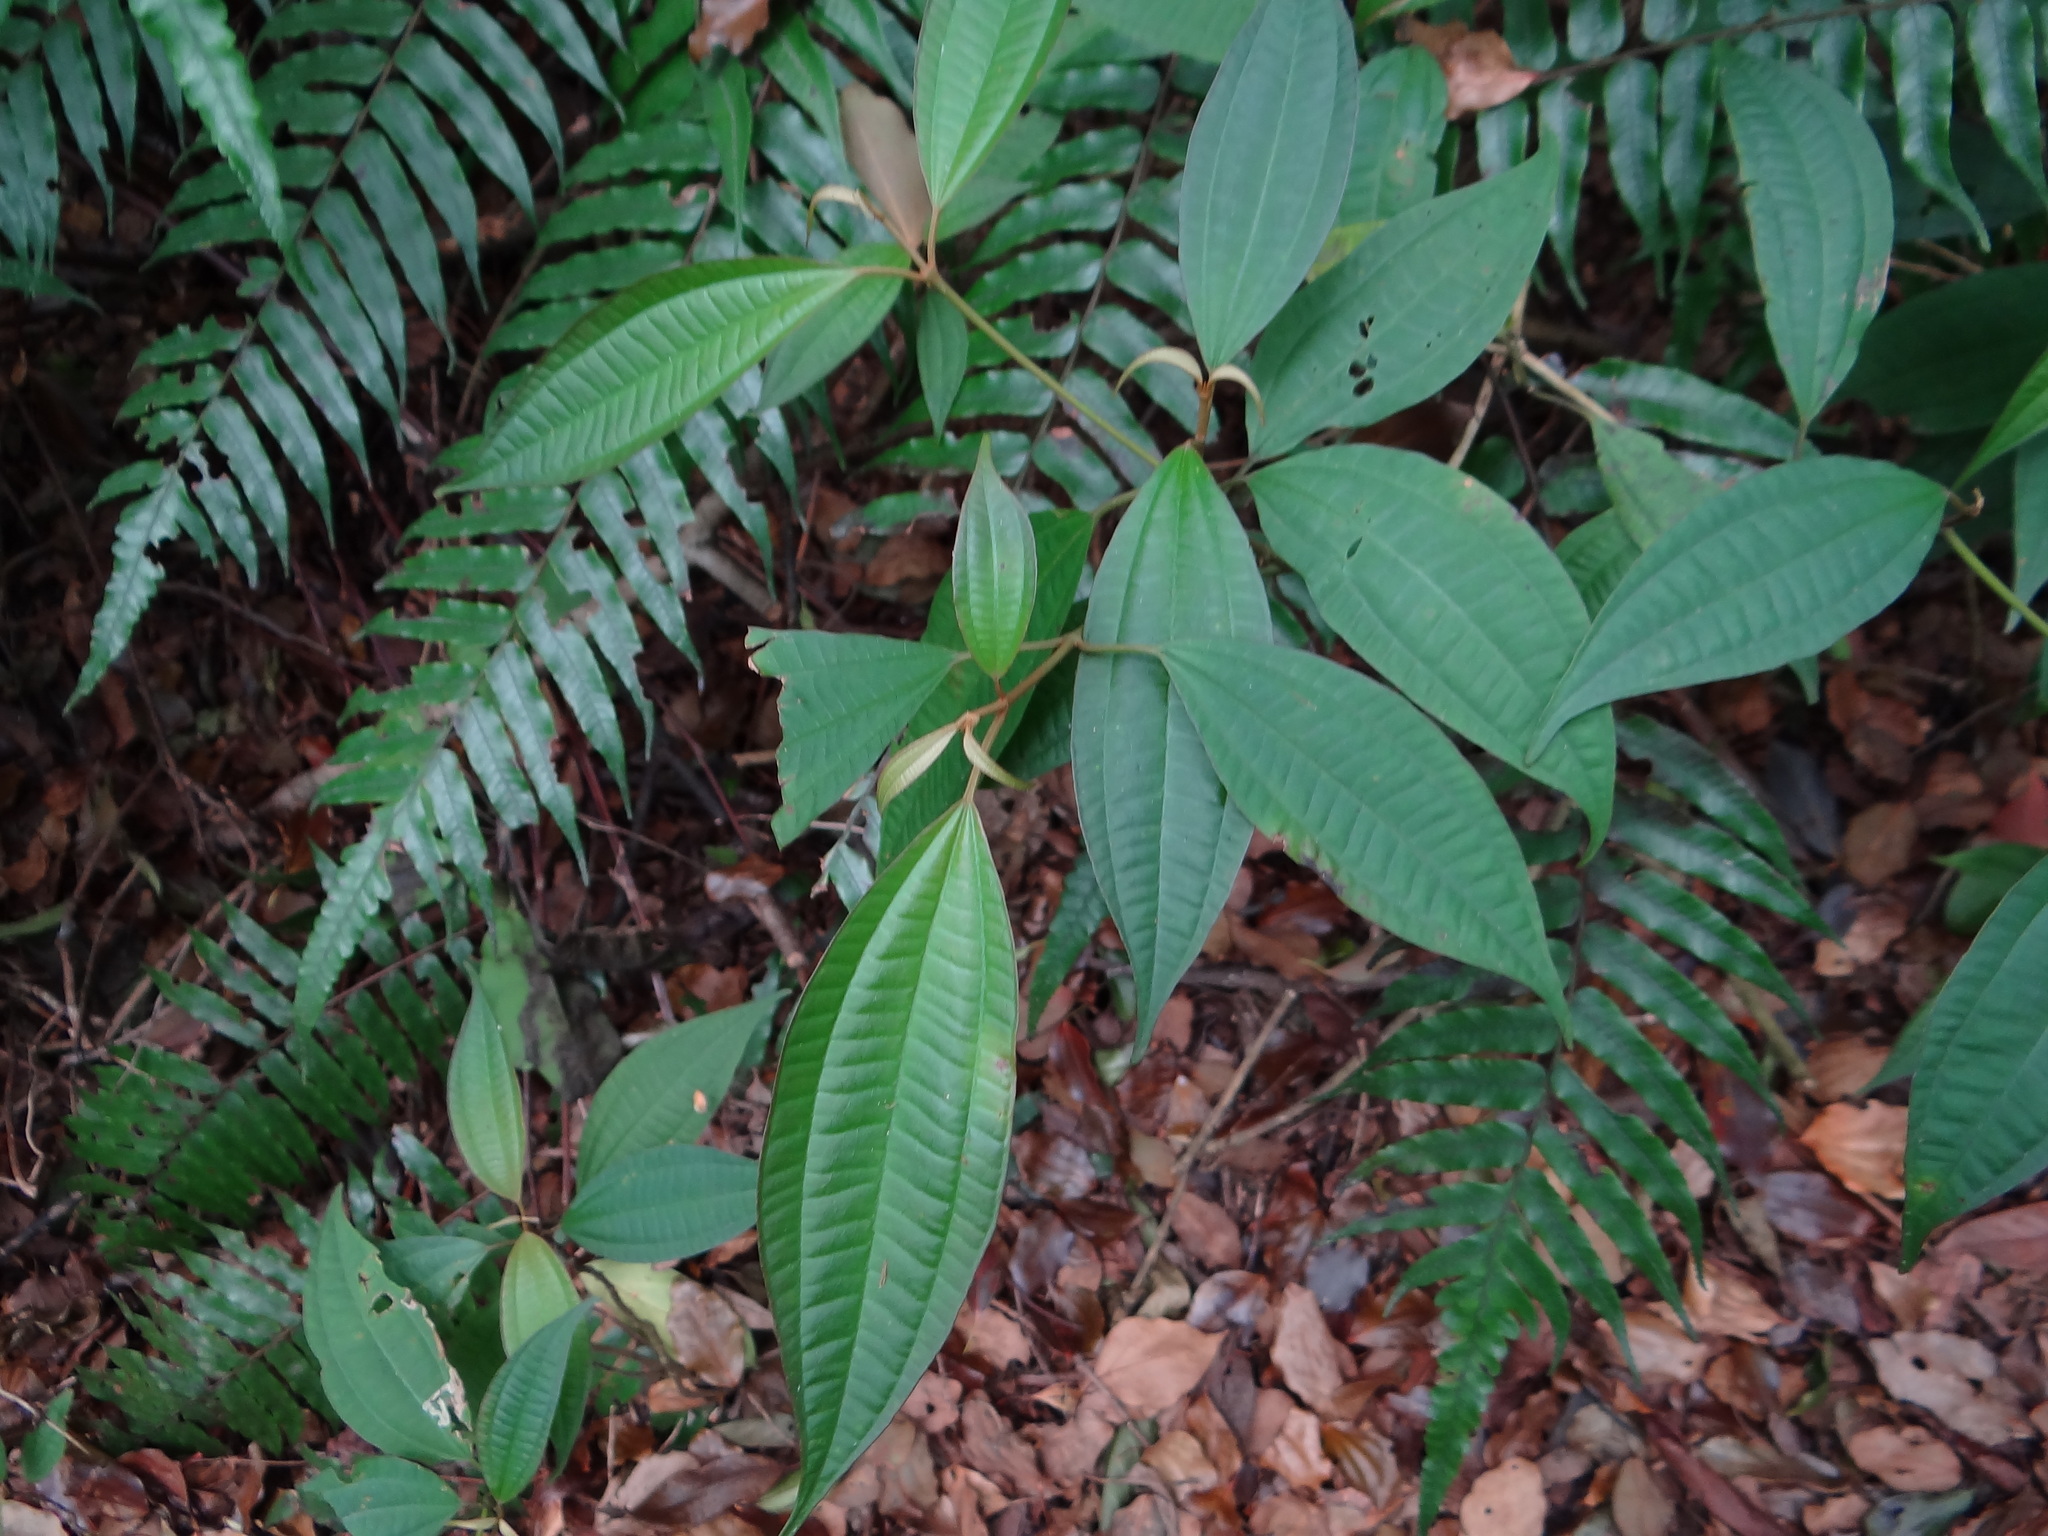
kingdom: Plantae
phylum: Tracheophyta
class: Magnoliopsida
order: Myrtales
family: Melastomataceae
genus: Blastus
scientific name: Blastus cochinchinensis
